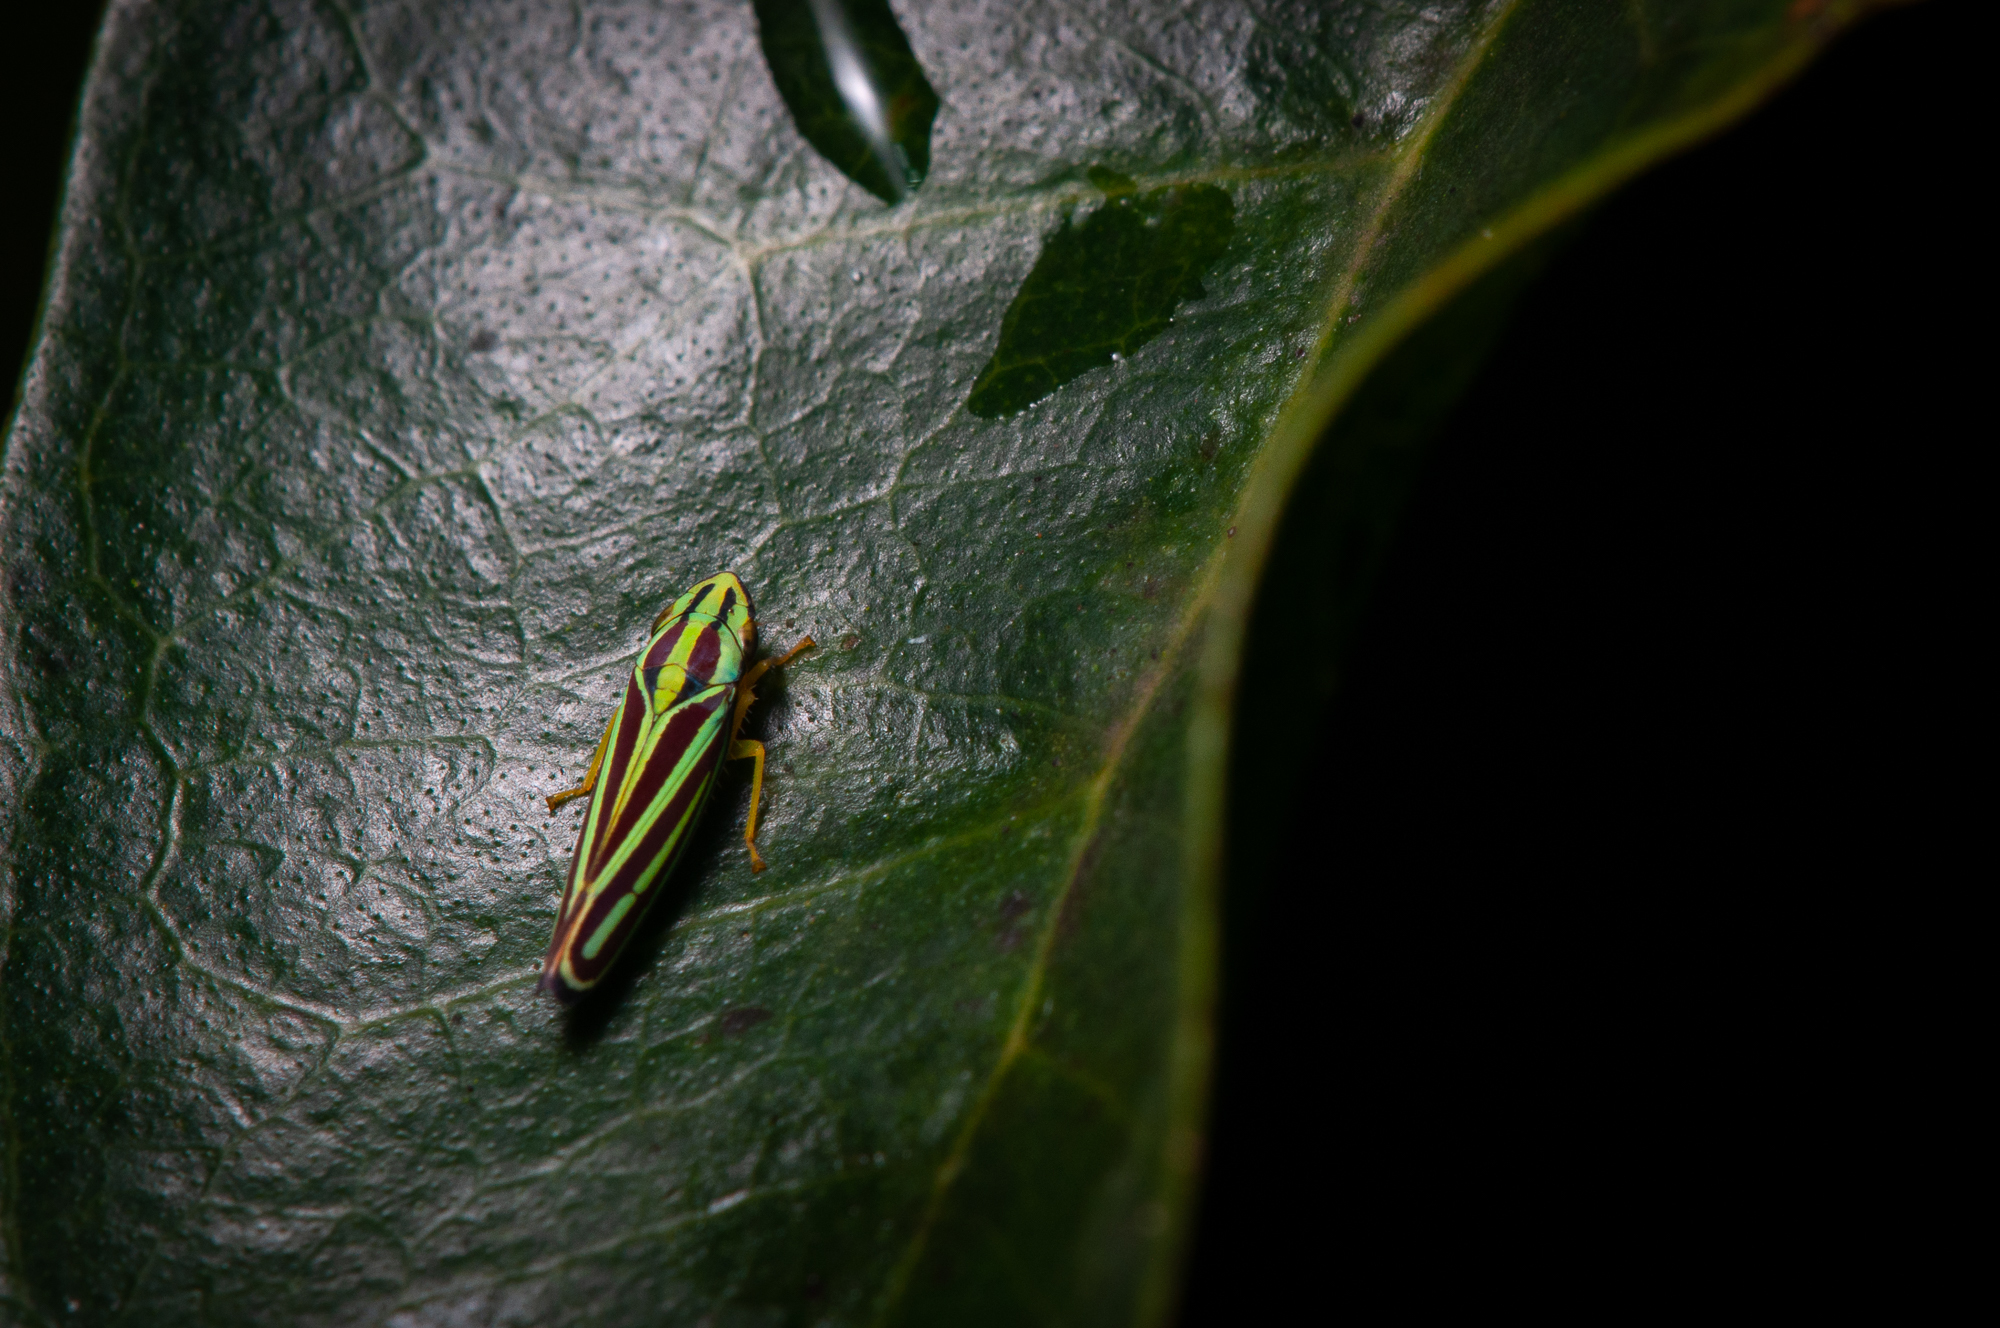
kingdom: Animalia
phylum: Arthropoda
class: Insecta
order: Hemiptera
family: Cicadellidae
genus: Graphocephala
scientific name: Graphocephala bivittata
